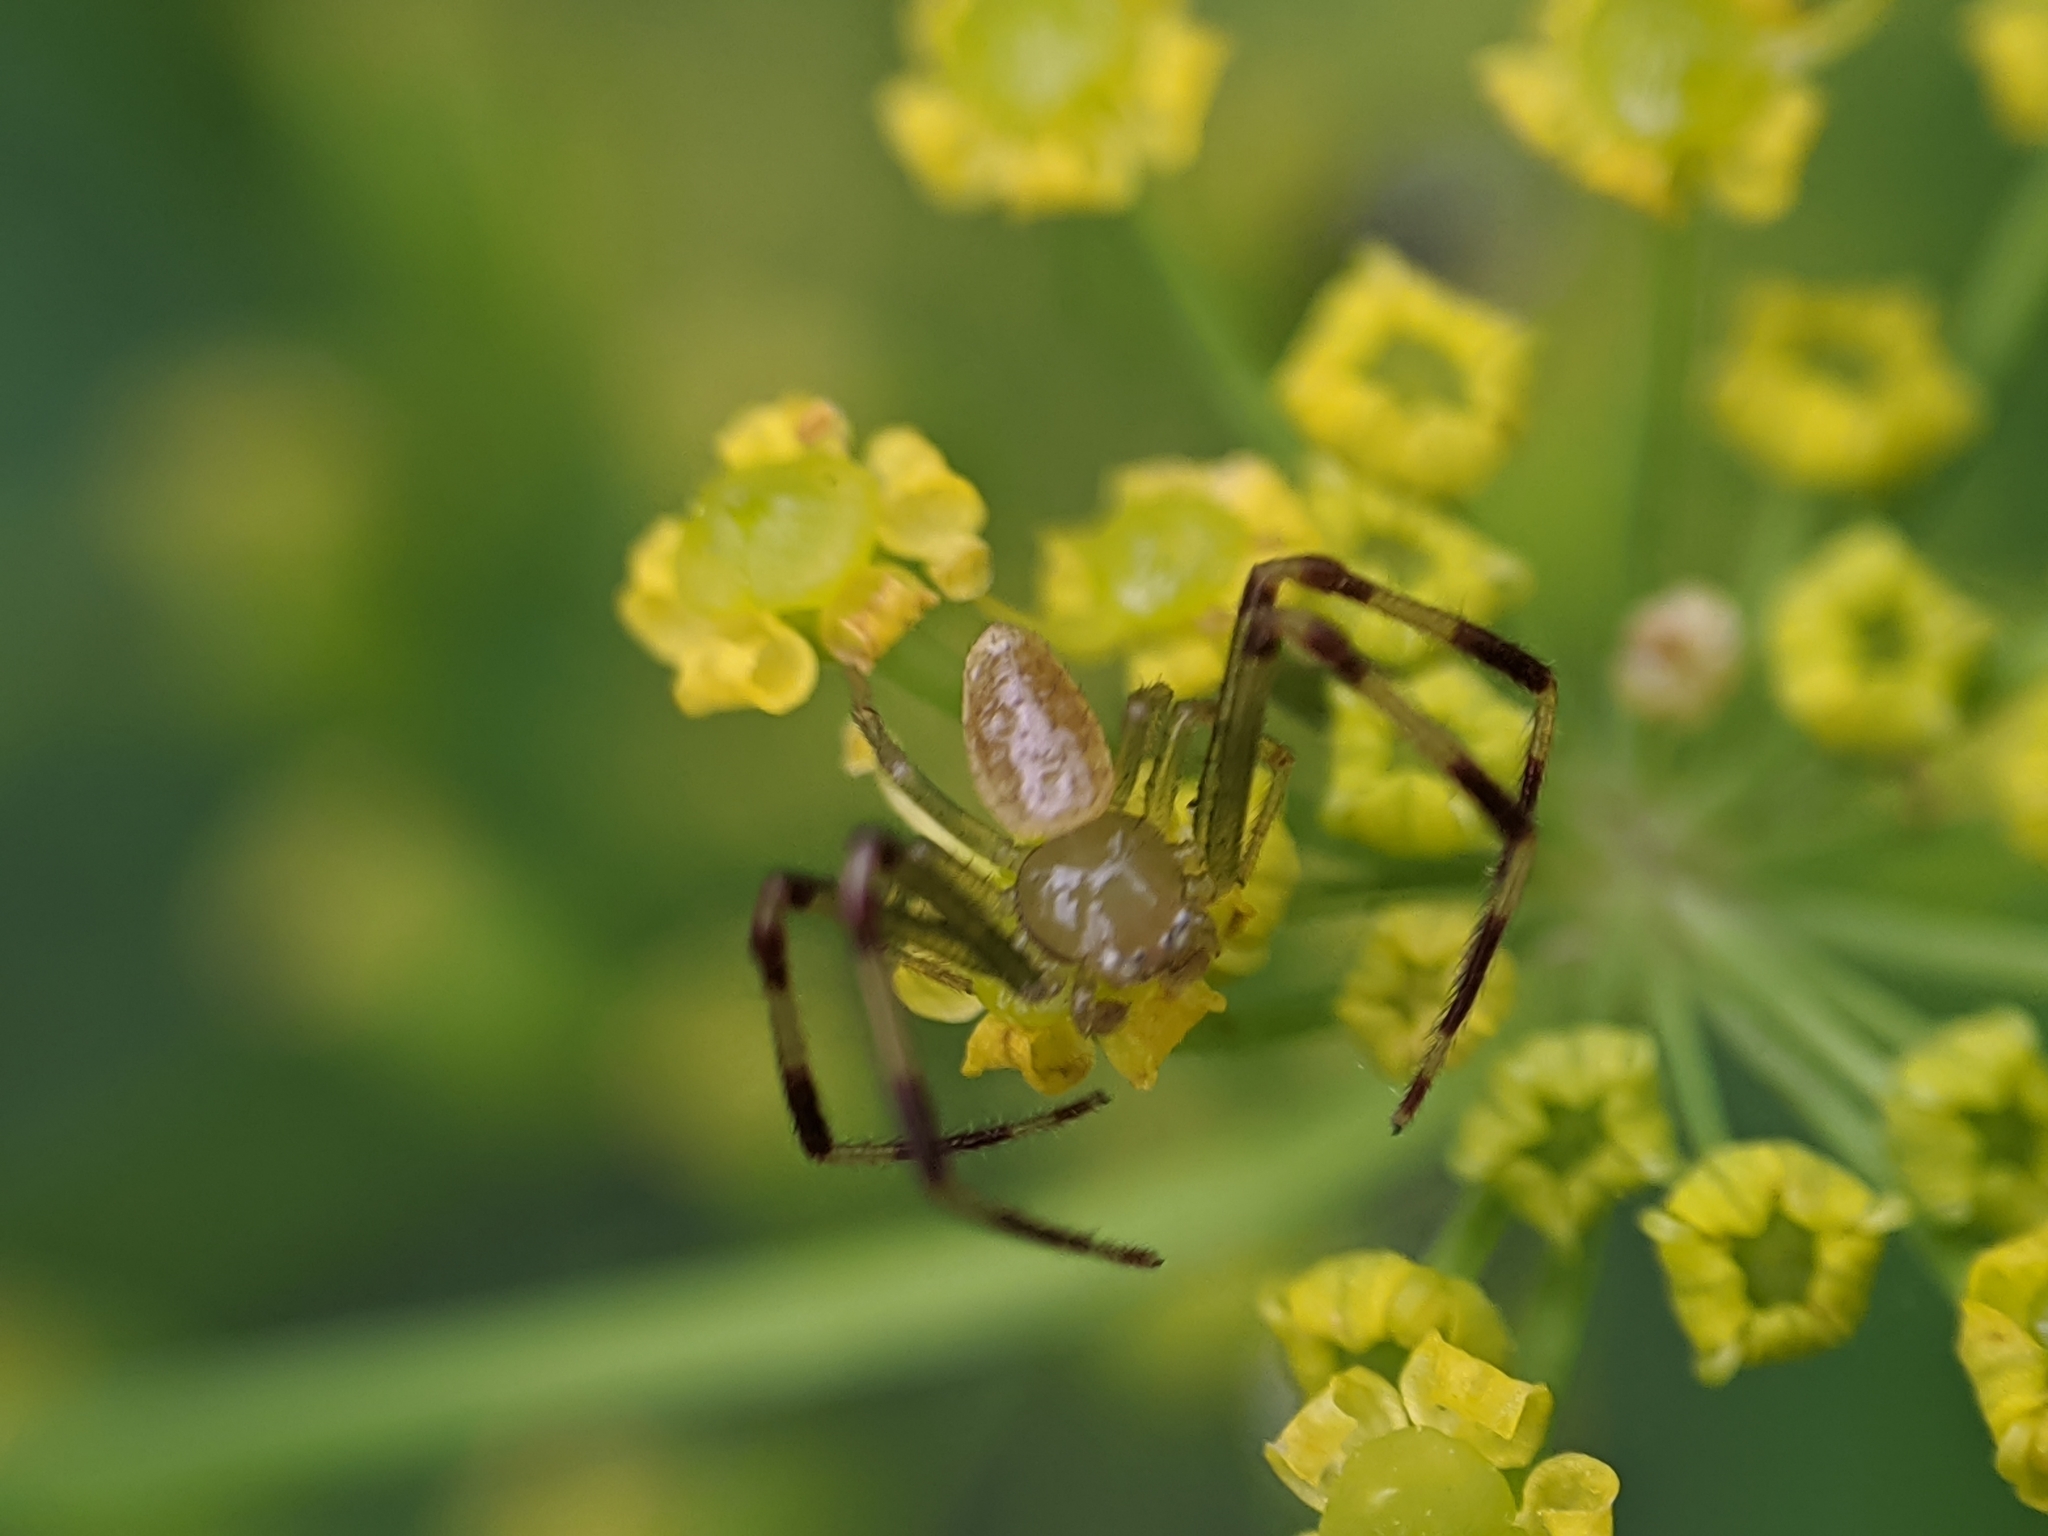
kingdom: Animalia
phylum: Arthropoda
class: Arachnida
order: Araneae
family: Thomisidae
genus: Misumessus
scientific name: Misumessus oblongus
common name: American green crab spider
